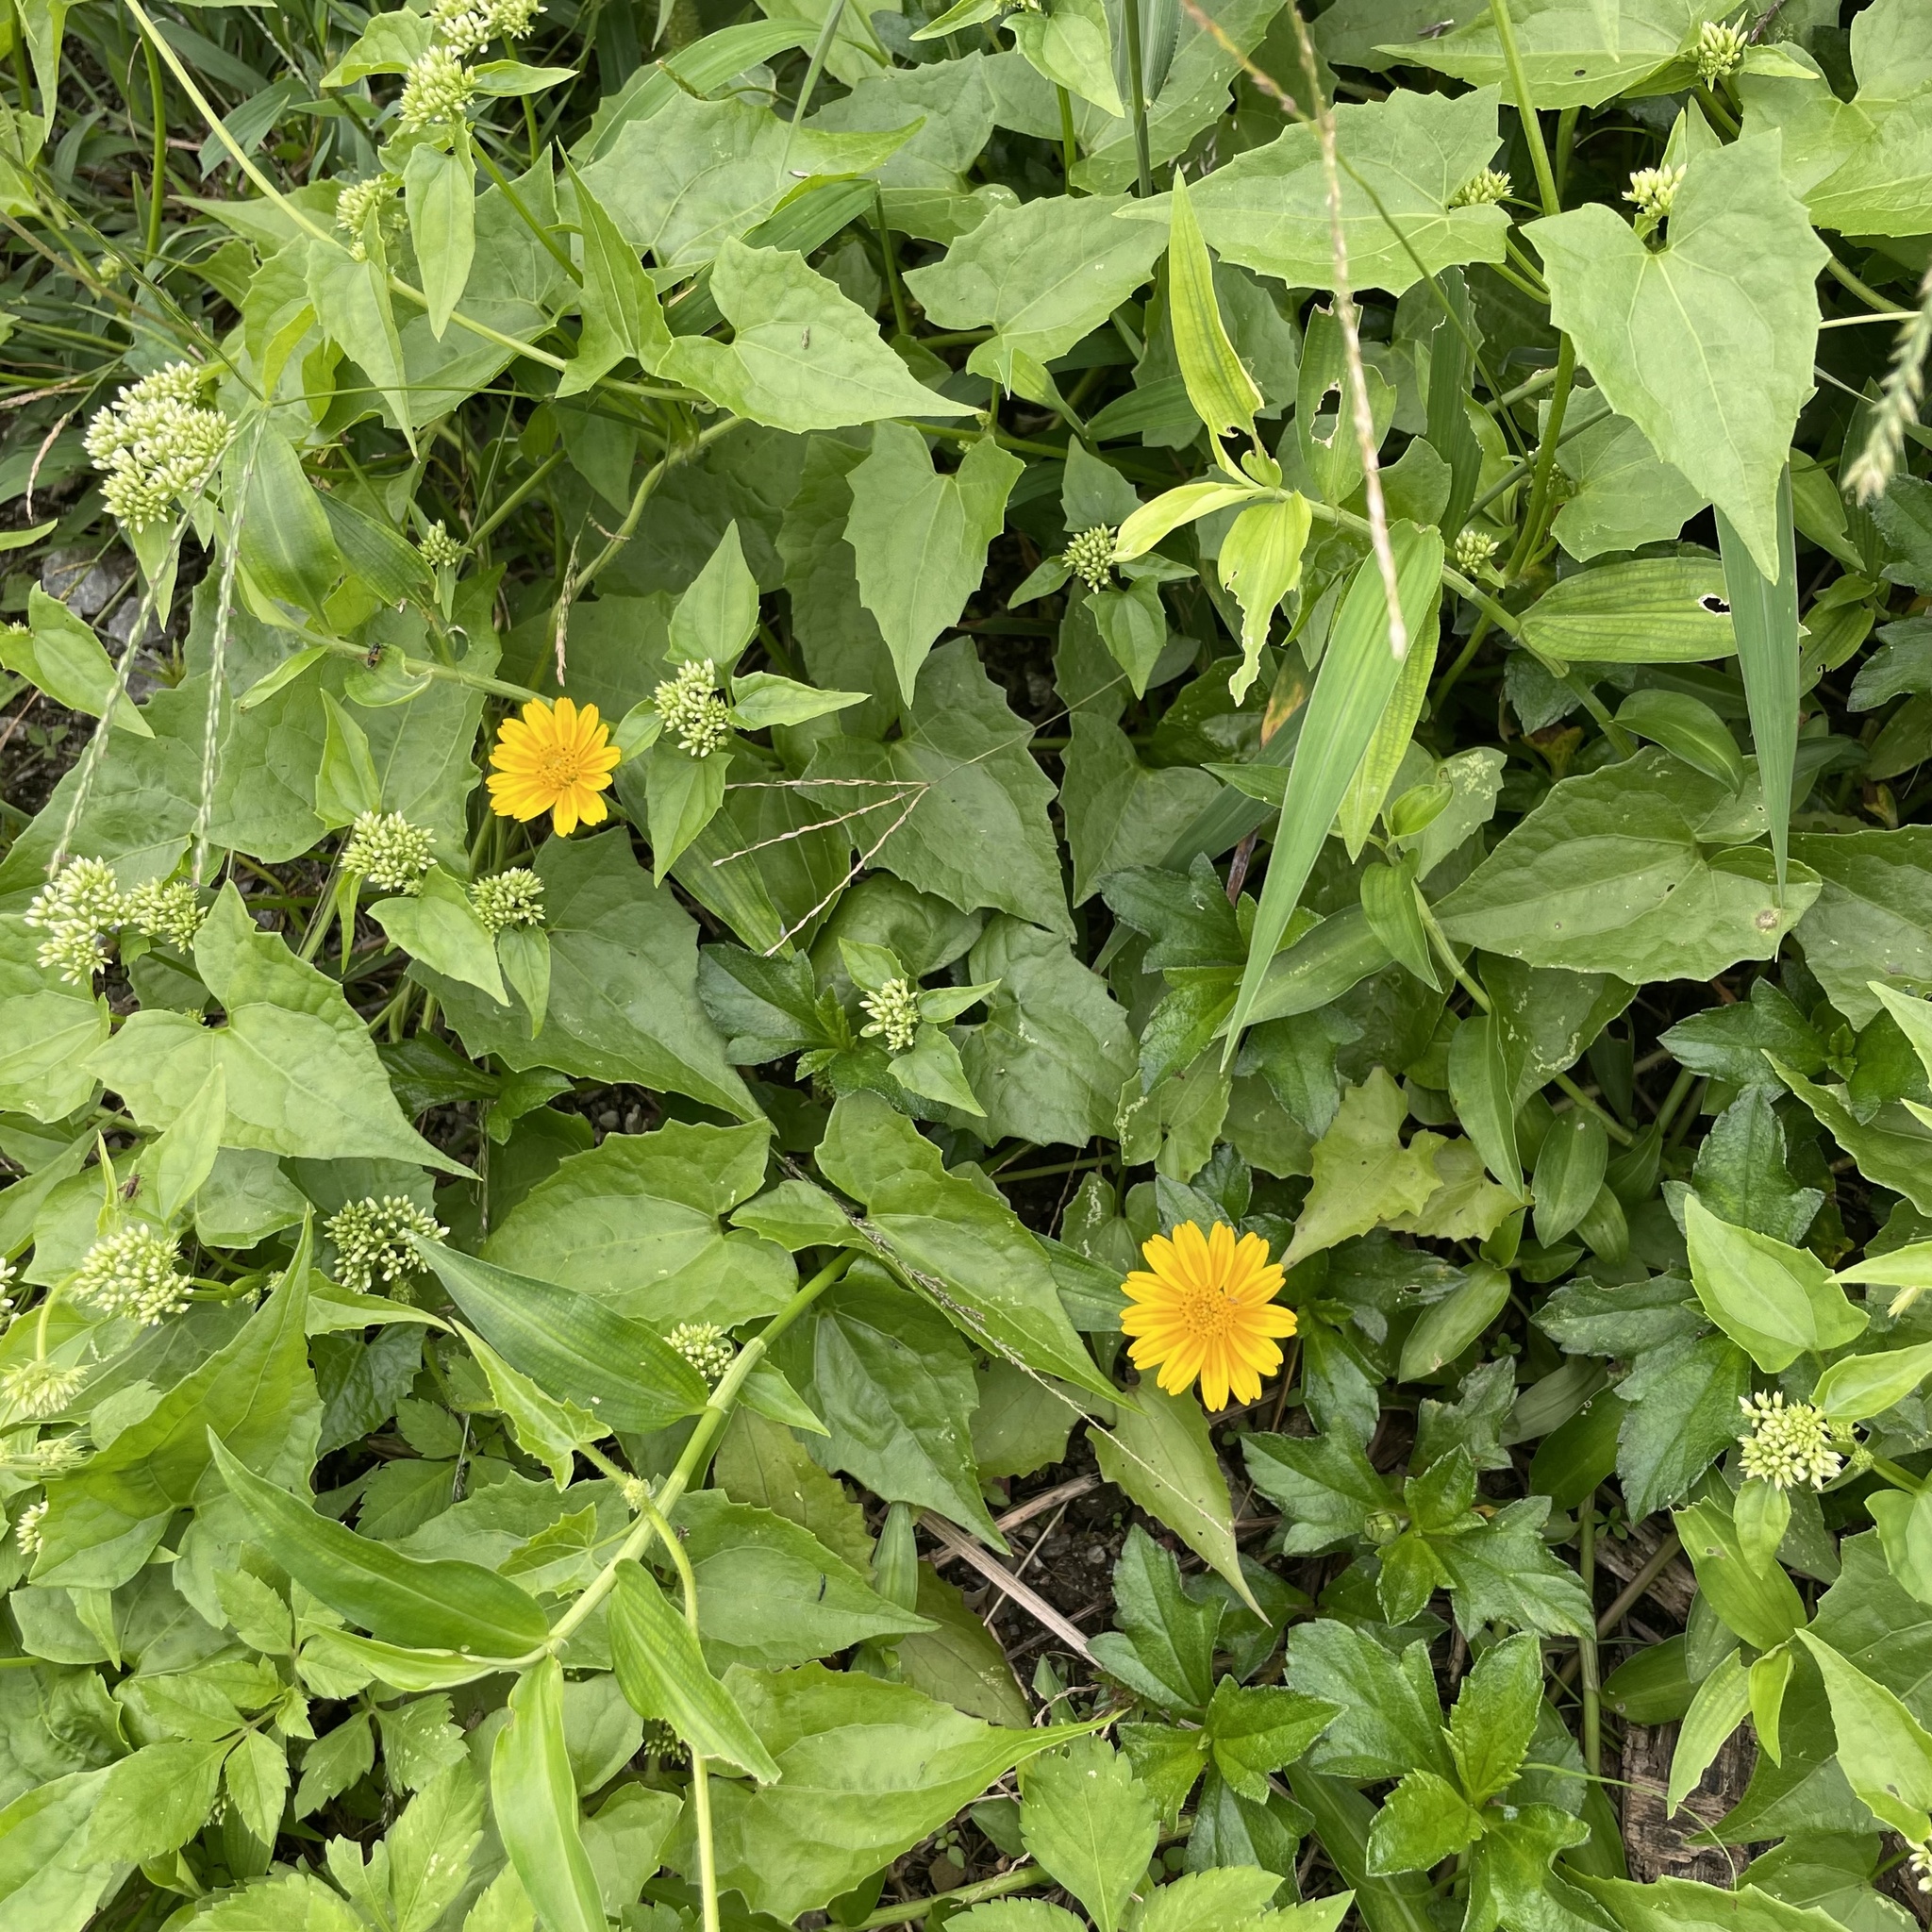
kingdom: Plantae
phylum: Tracheophyta
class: Magnoliopsida
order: Asterales
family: Asteraceae
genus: Sphagneticola
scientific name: Sphagneticola trilobata
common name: Bay biscayne creeping-oxeye
